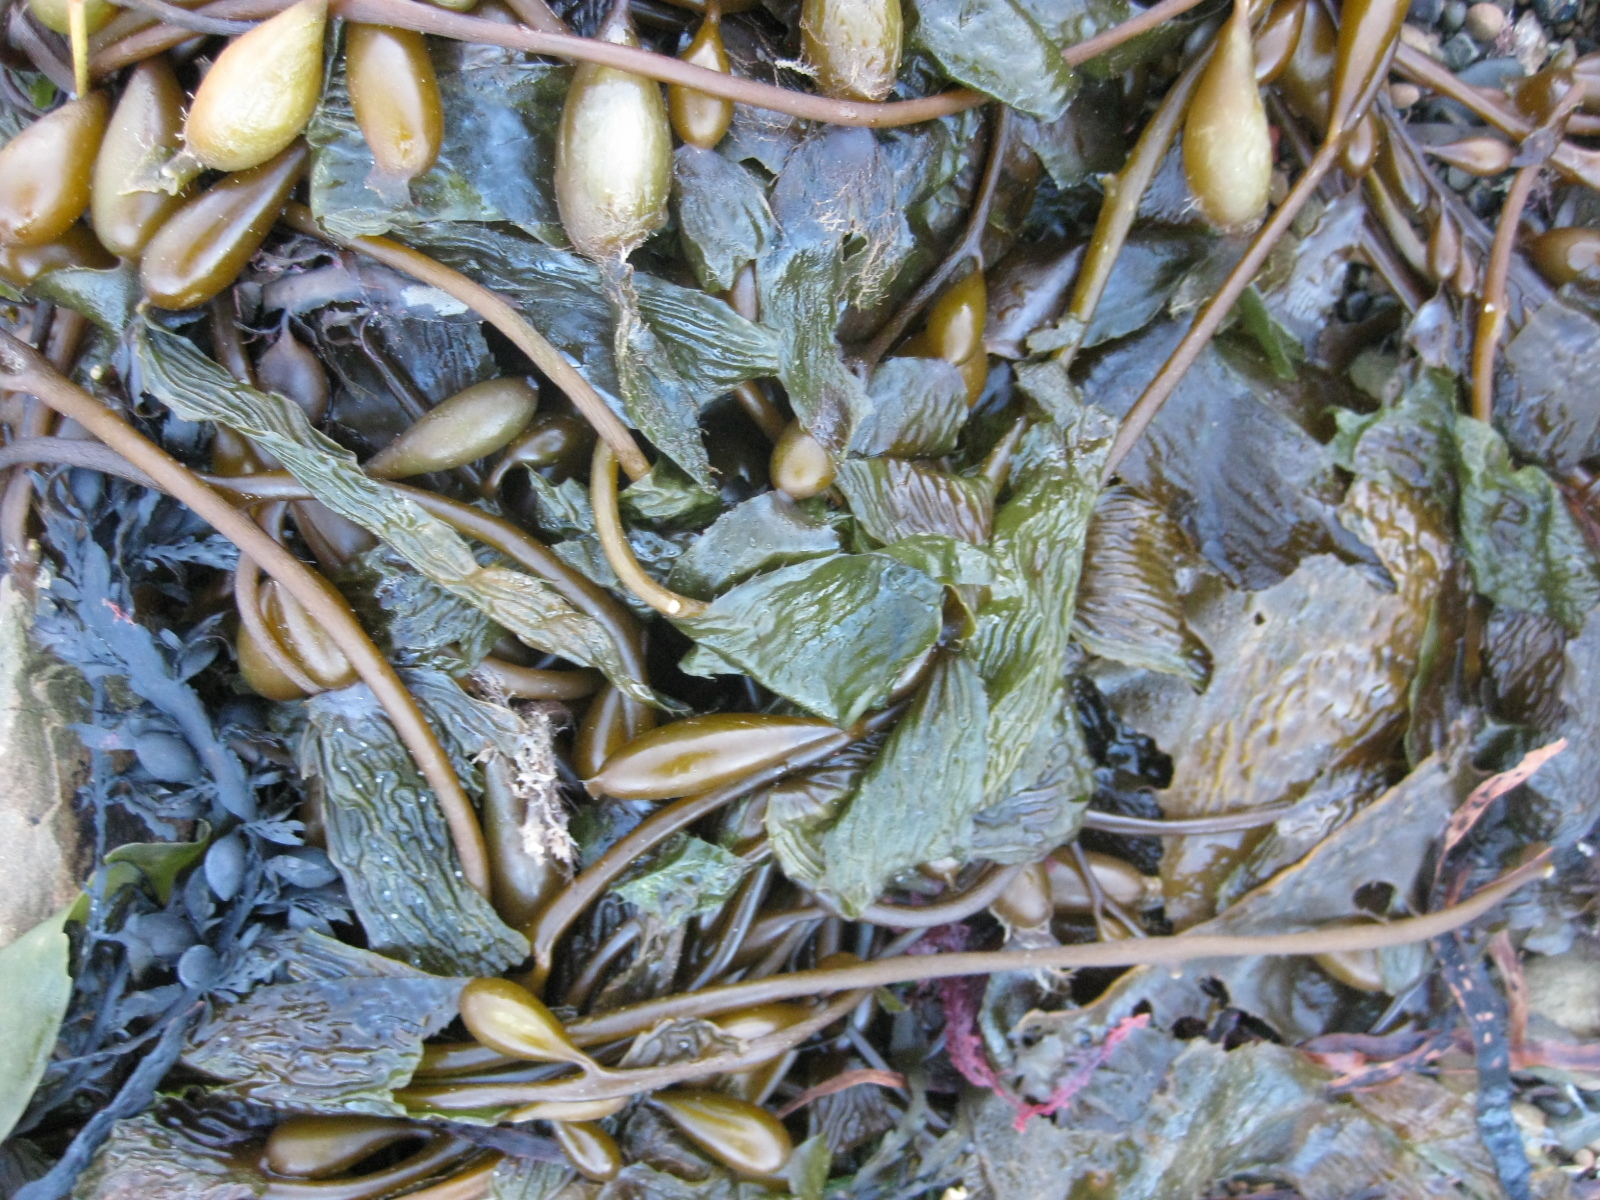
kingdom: Chromista
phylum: Ochrophyta
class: Phaeophyceae
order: Laminariales
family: Laminariaceae
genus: Macrocystis
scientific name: Macrocystis pyrifera
